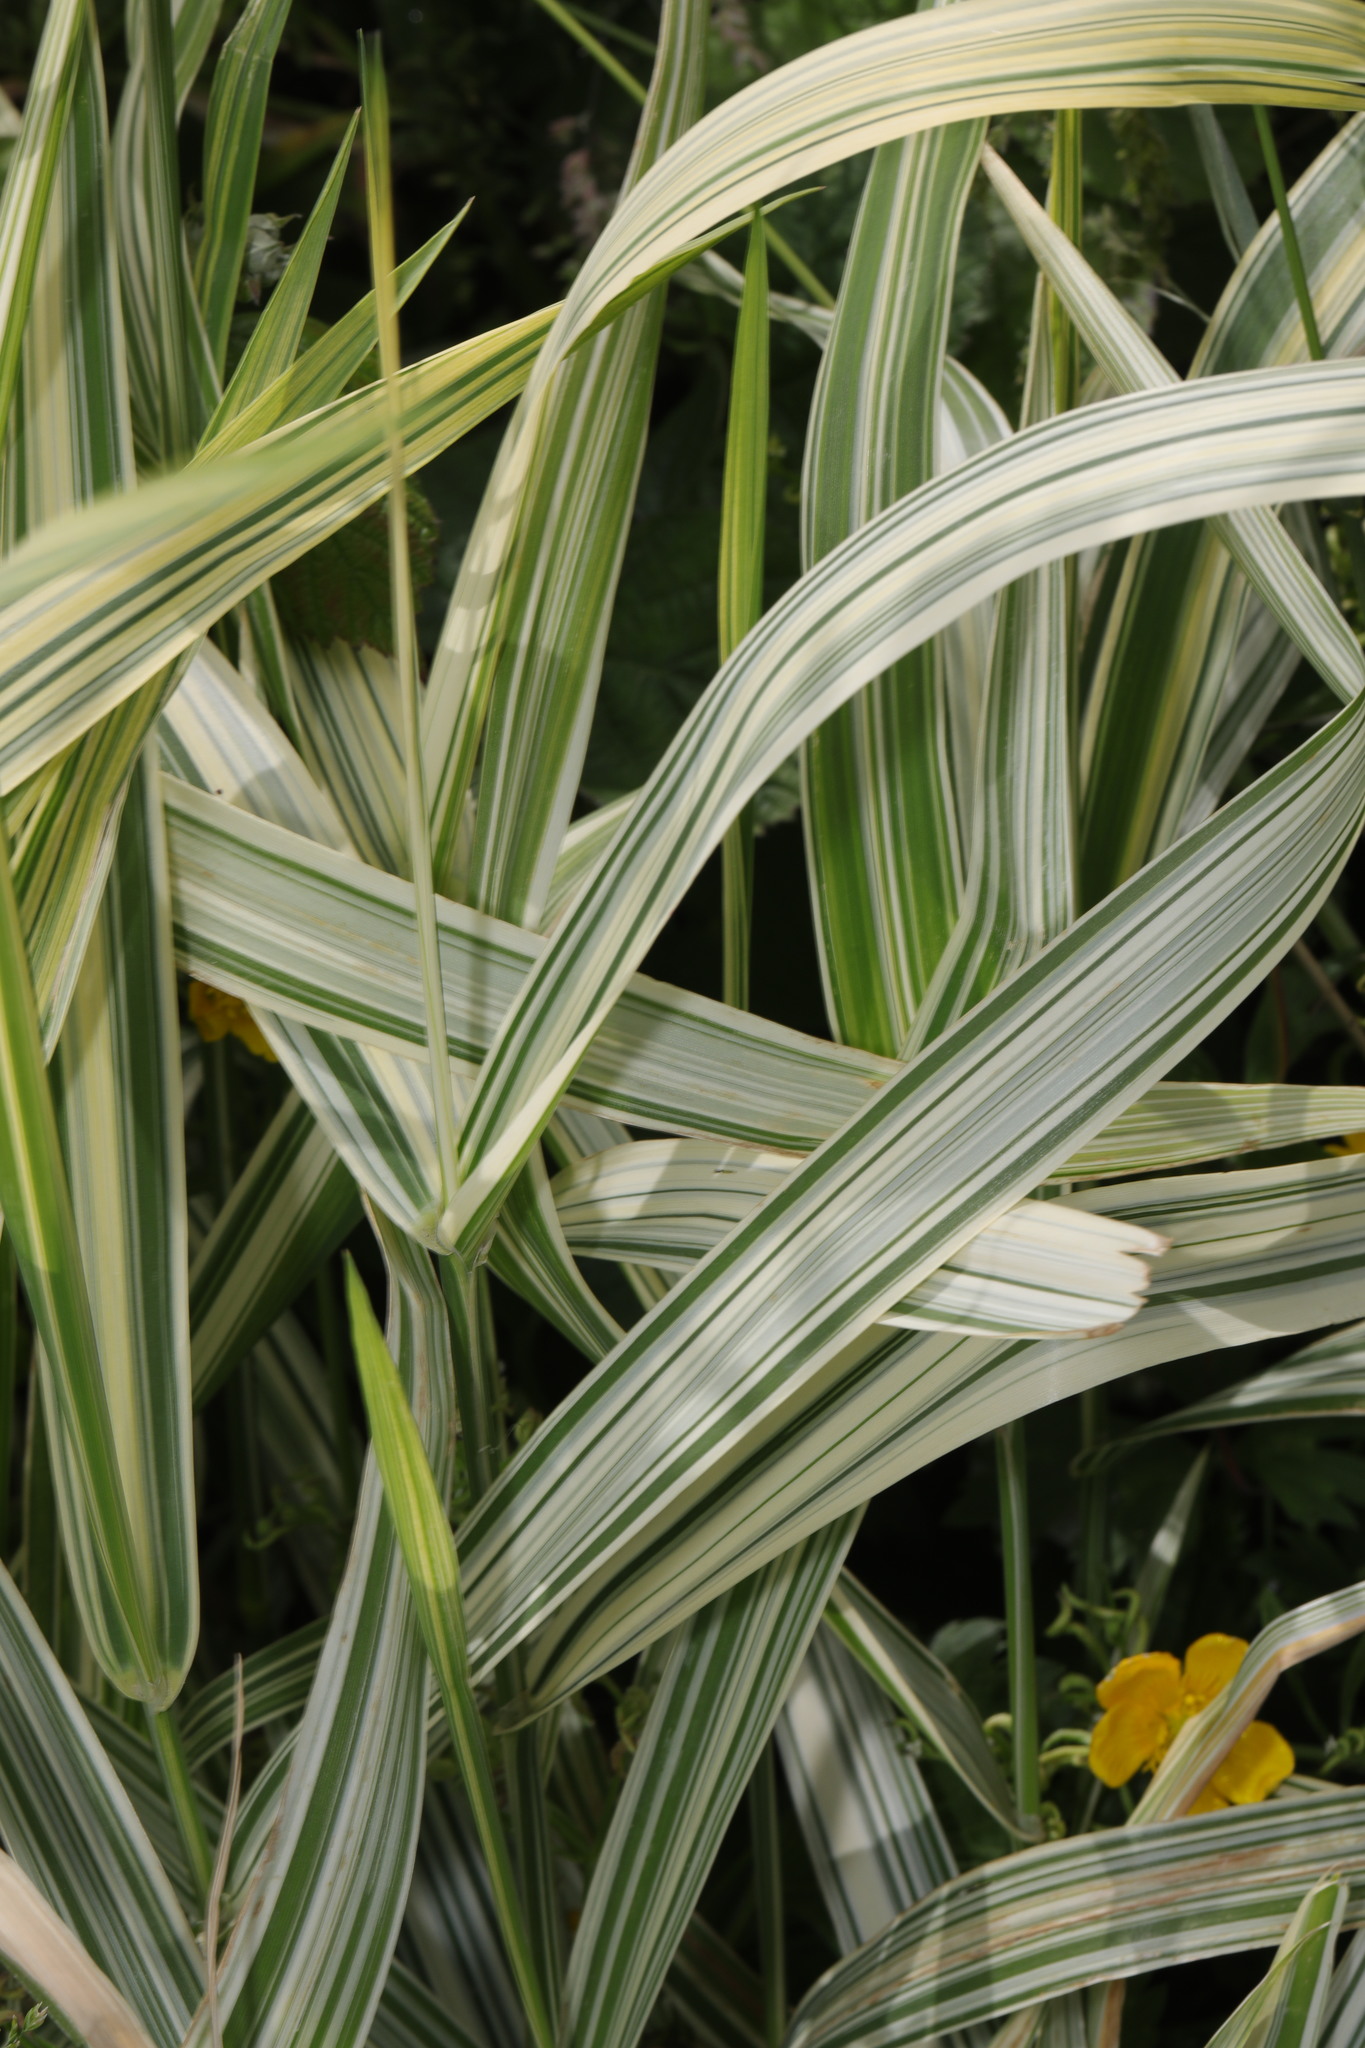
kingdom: Plantae
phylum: Tracheophyta
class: Liliopsida
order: Poales
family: Poaceae
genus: Phalaris
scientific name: Phalaris arundinacea
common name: Reed canary-grass
